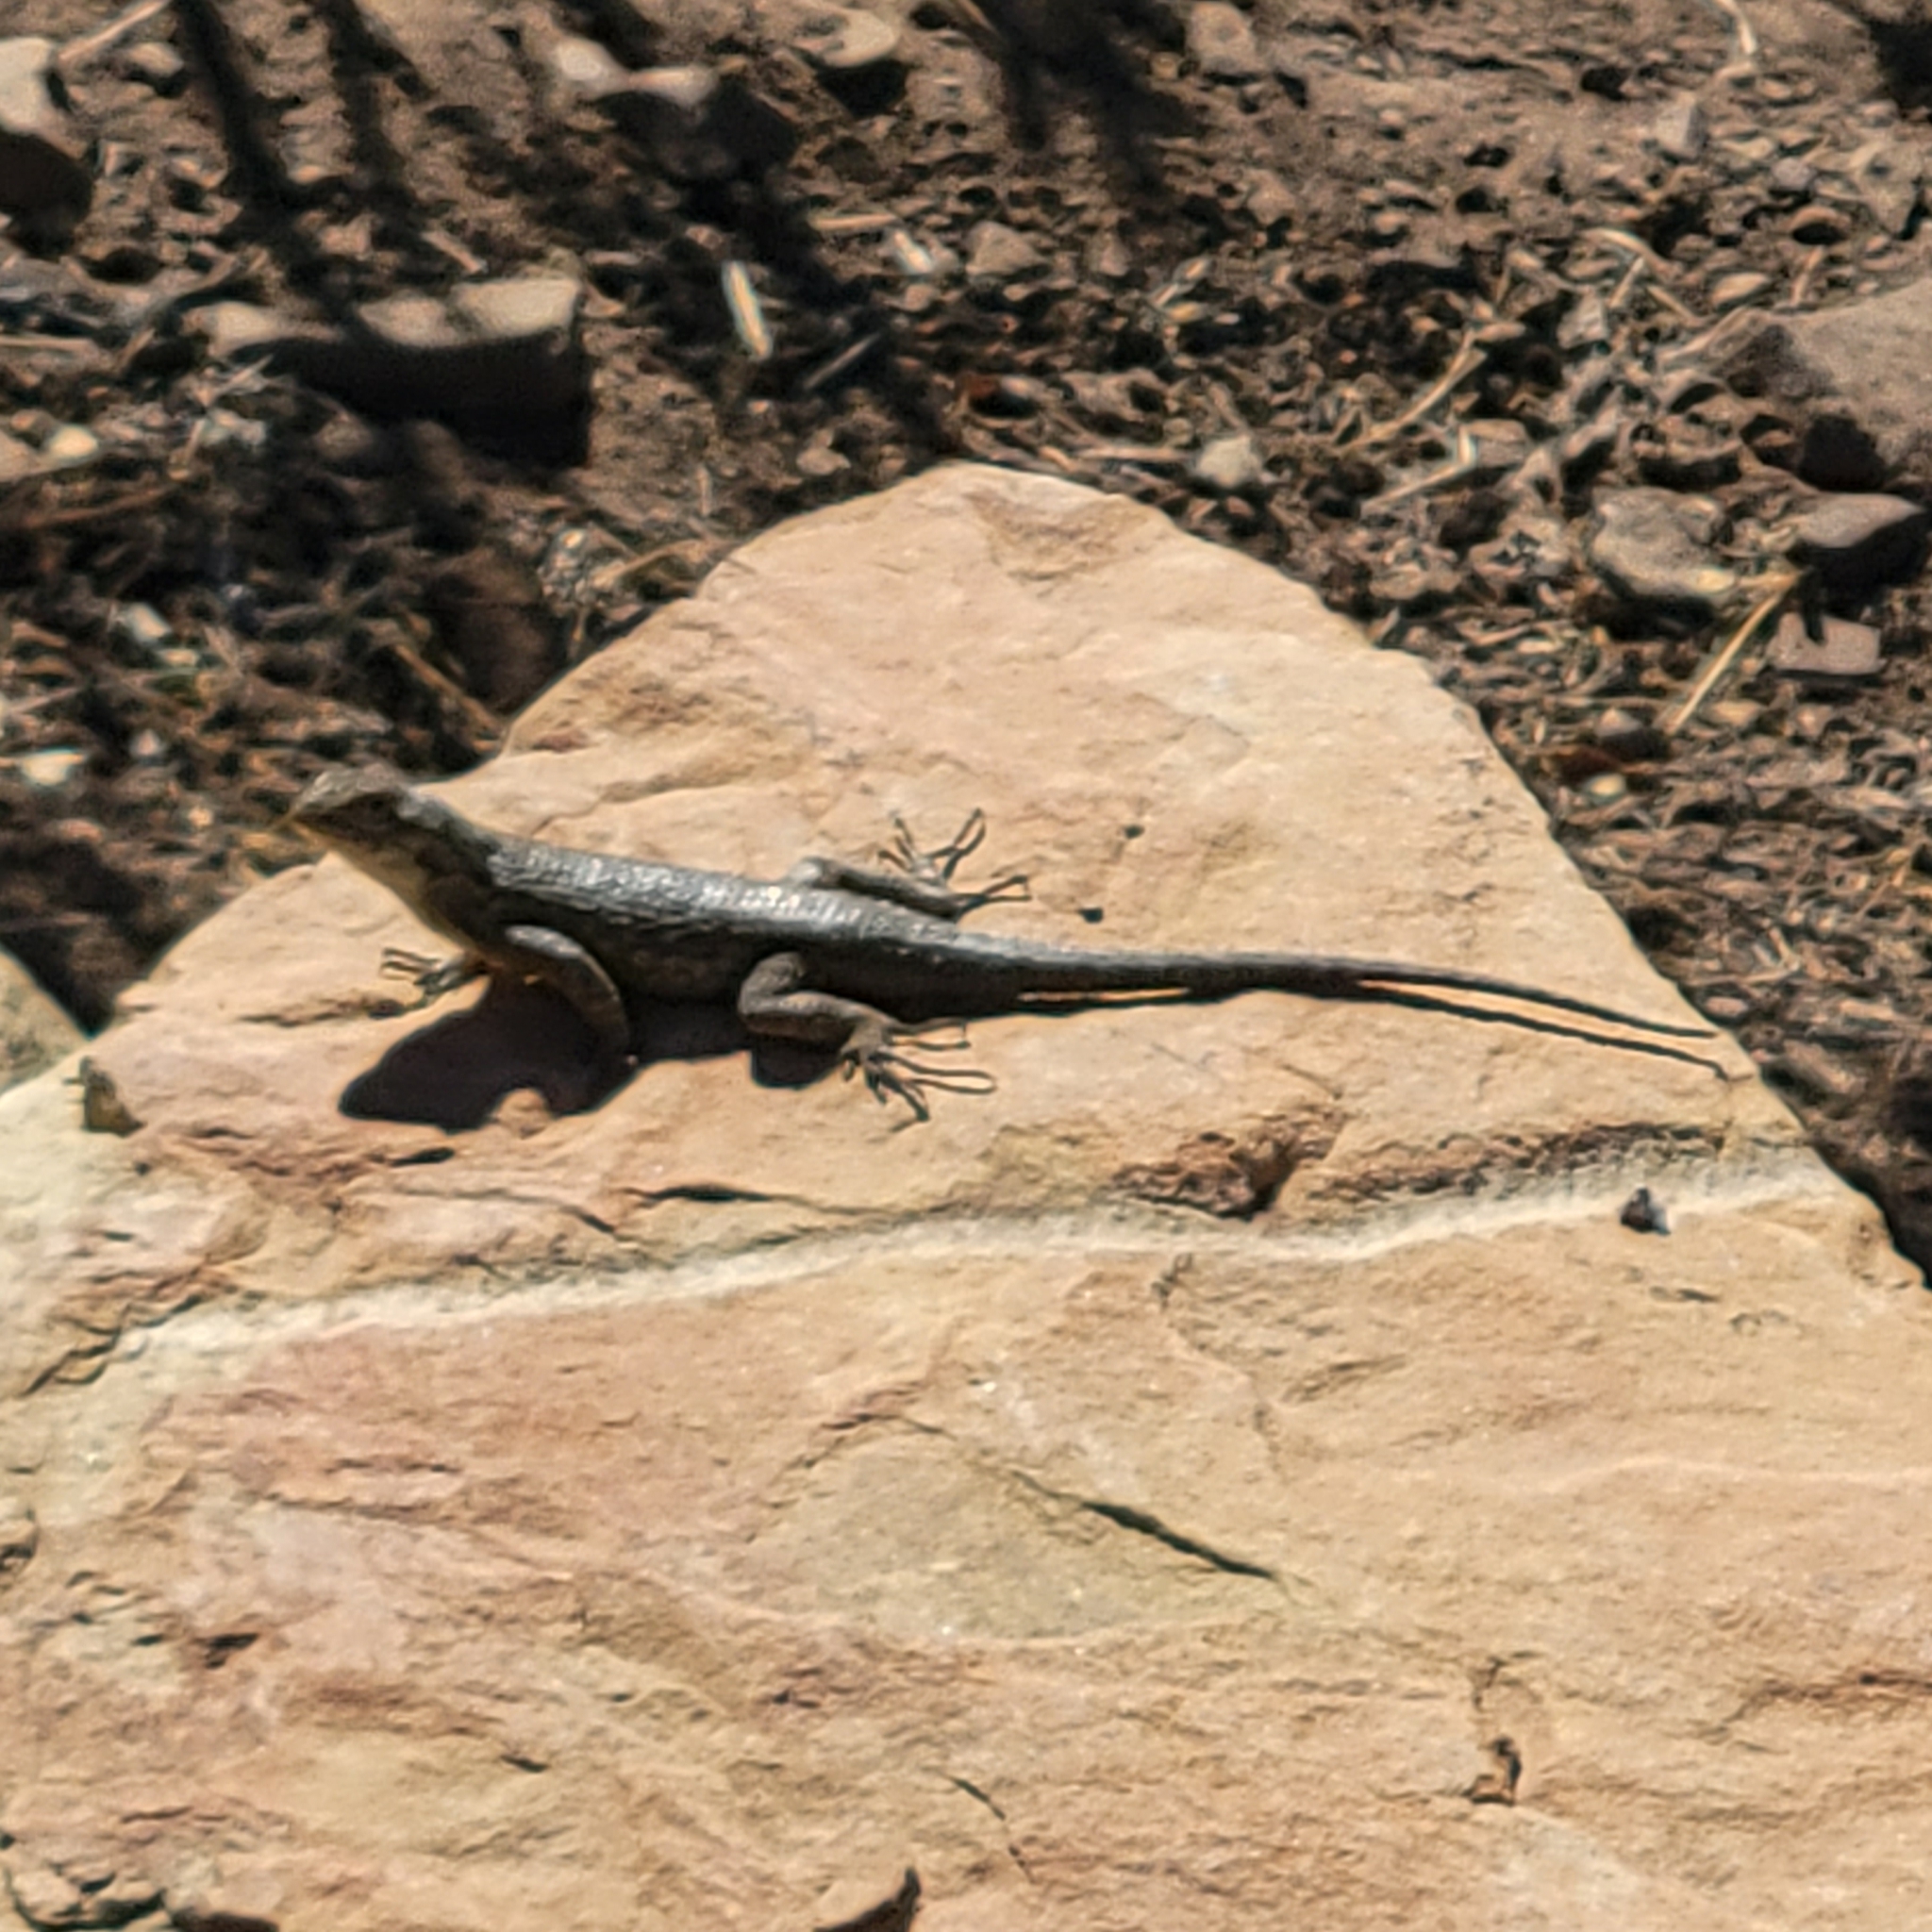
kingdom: Animalia
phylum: Chordata
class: Squamata
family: Phrynosomatidae
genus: Sceloporus
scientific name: Sceloporus occidentalis
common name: Western fence lizard
